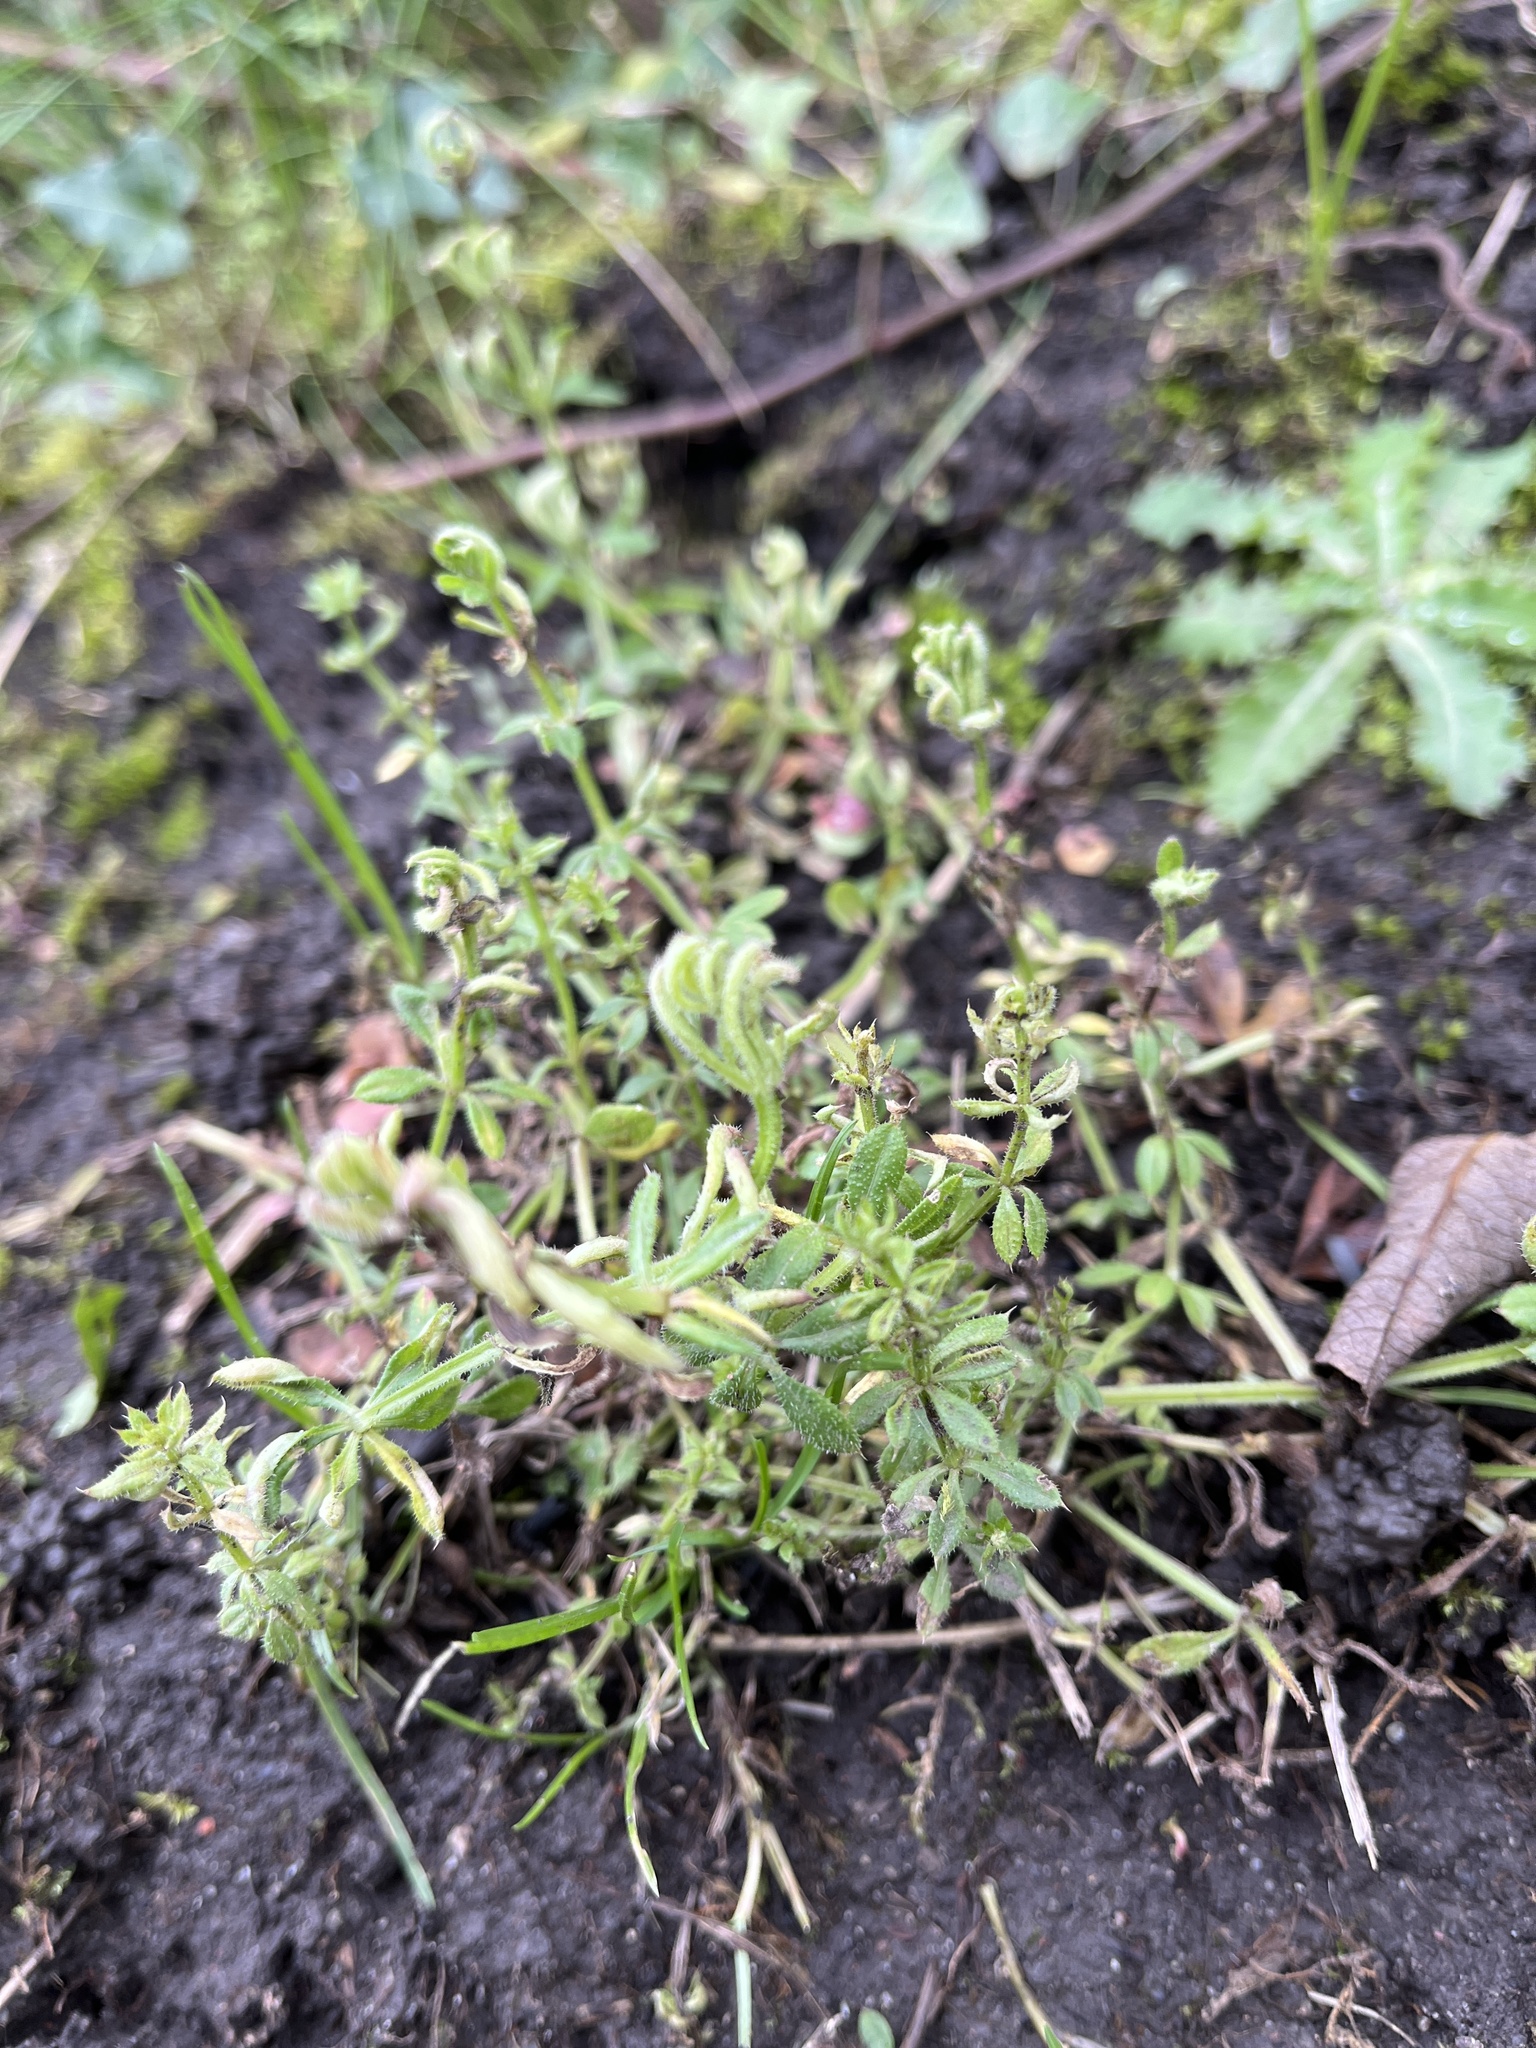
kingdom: Animalia
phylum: Arthropoda
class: Arachnida
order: Trombidiformes
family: Eriophyidae
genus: Cecidophyes
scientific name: Cecidophyes rouhollahi
